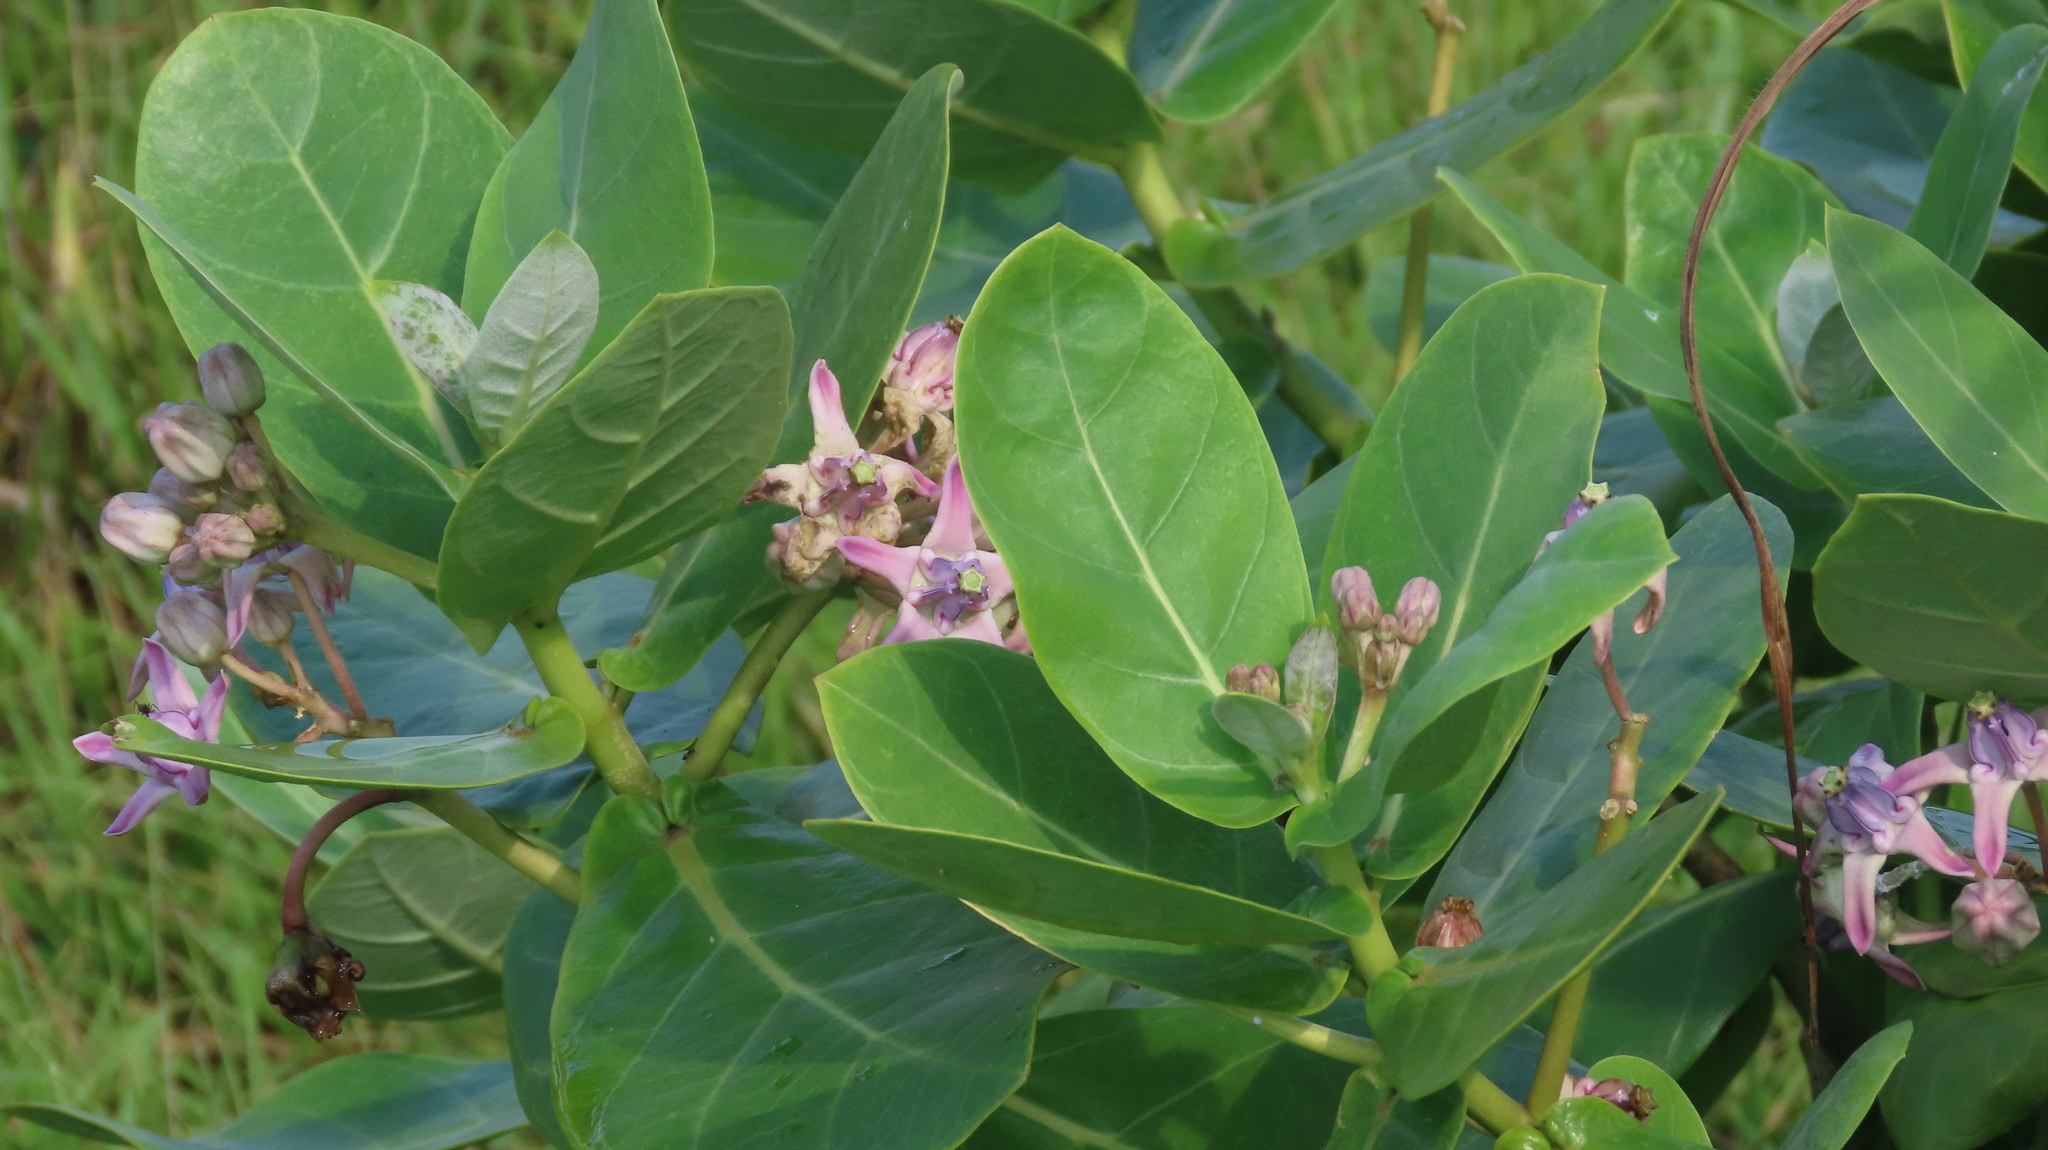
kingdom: Plantae
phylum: Tracheophyta
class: Magnoliopsida
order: Gentianales
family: Apocynaceae
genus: Calotropis
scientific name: Calotropis gigantea
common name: Crown flower
